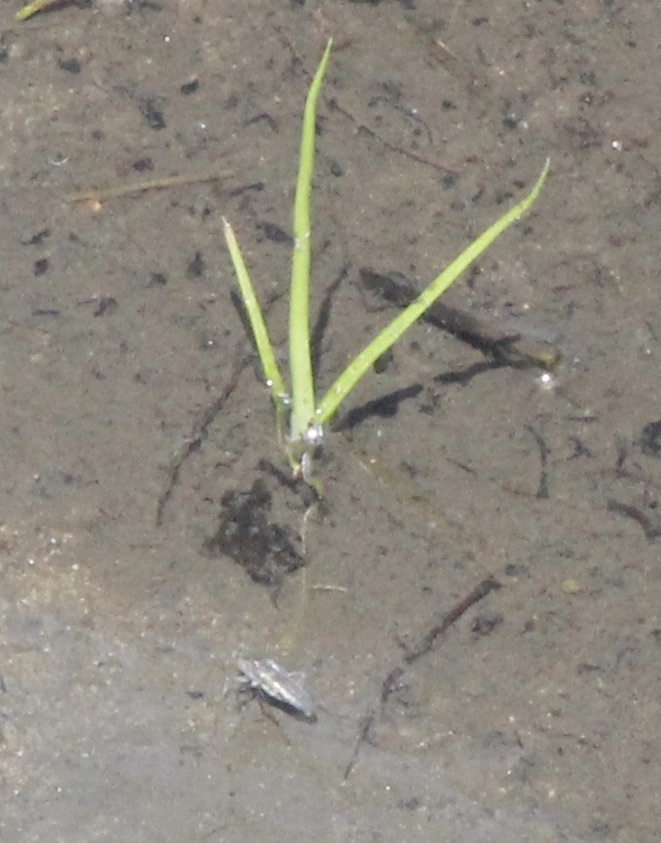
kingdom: Animalia
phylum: Arthropoda
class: Insecta
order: Hemiptera
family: Gerridae
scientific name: Gerridae
